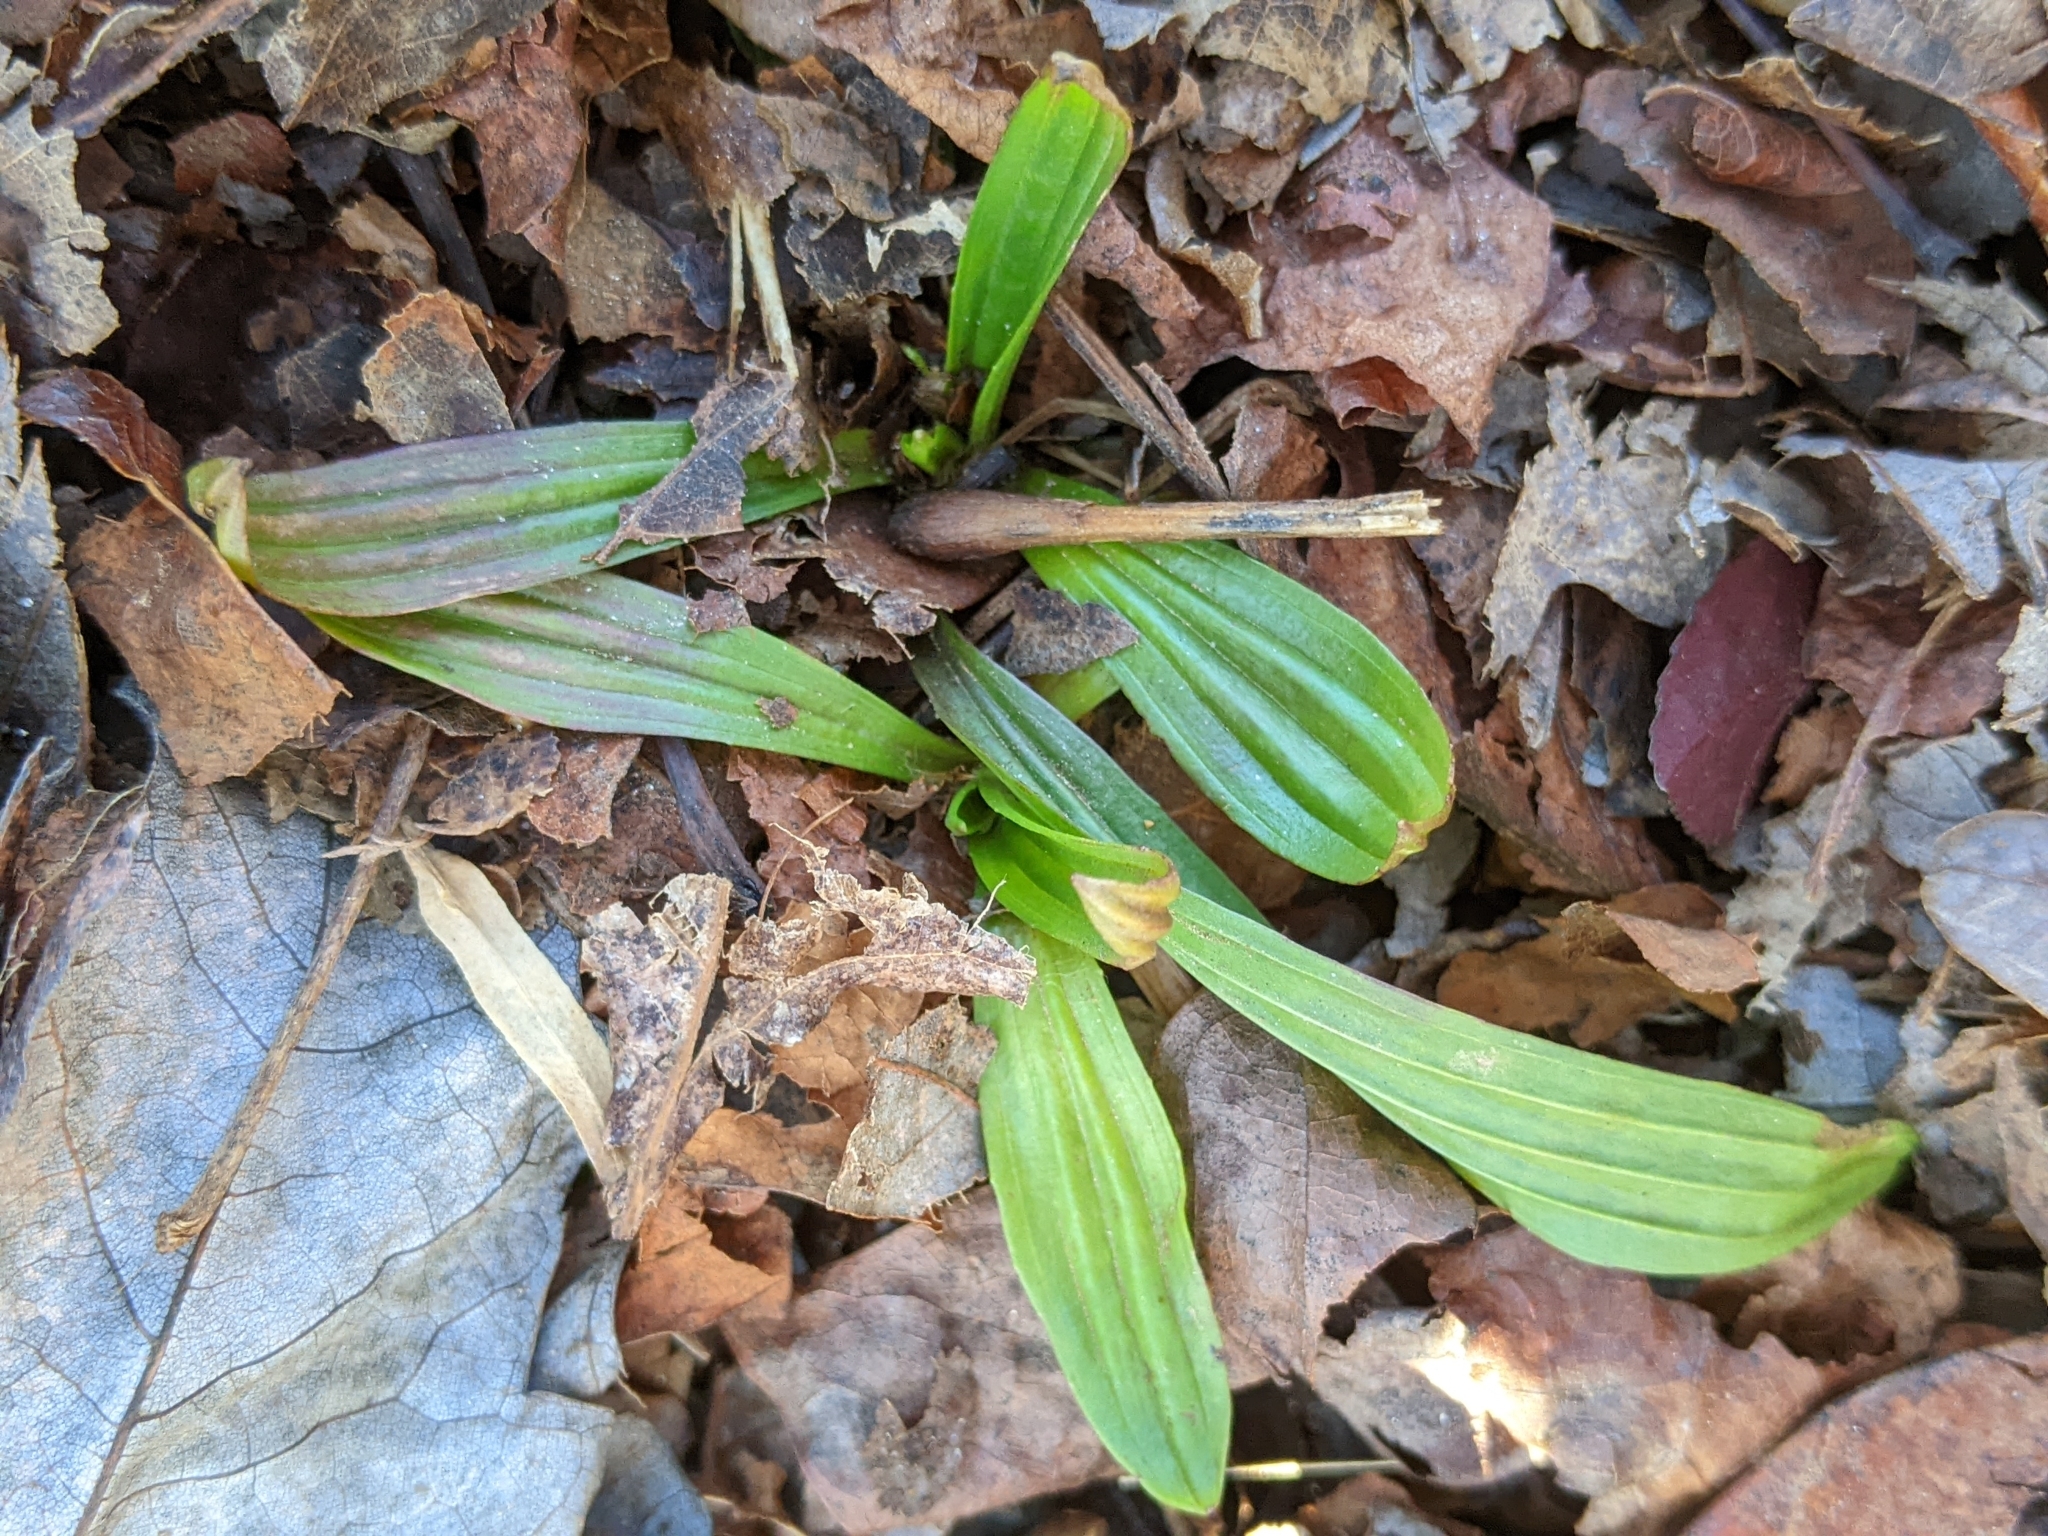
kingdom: Plantae
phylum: Tracheophyta
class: Magnoliopsida
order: Lamiales
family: Plantaginaceae
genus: Plantago
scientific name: Plantago lanceolata
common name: Ribwort plantain
